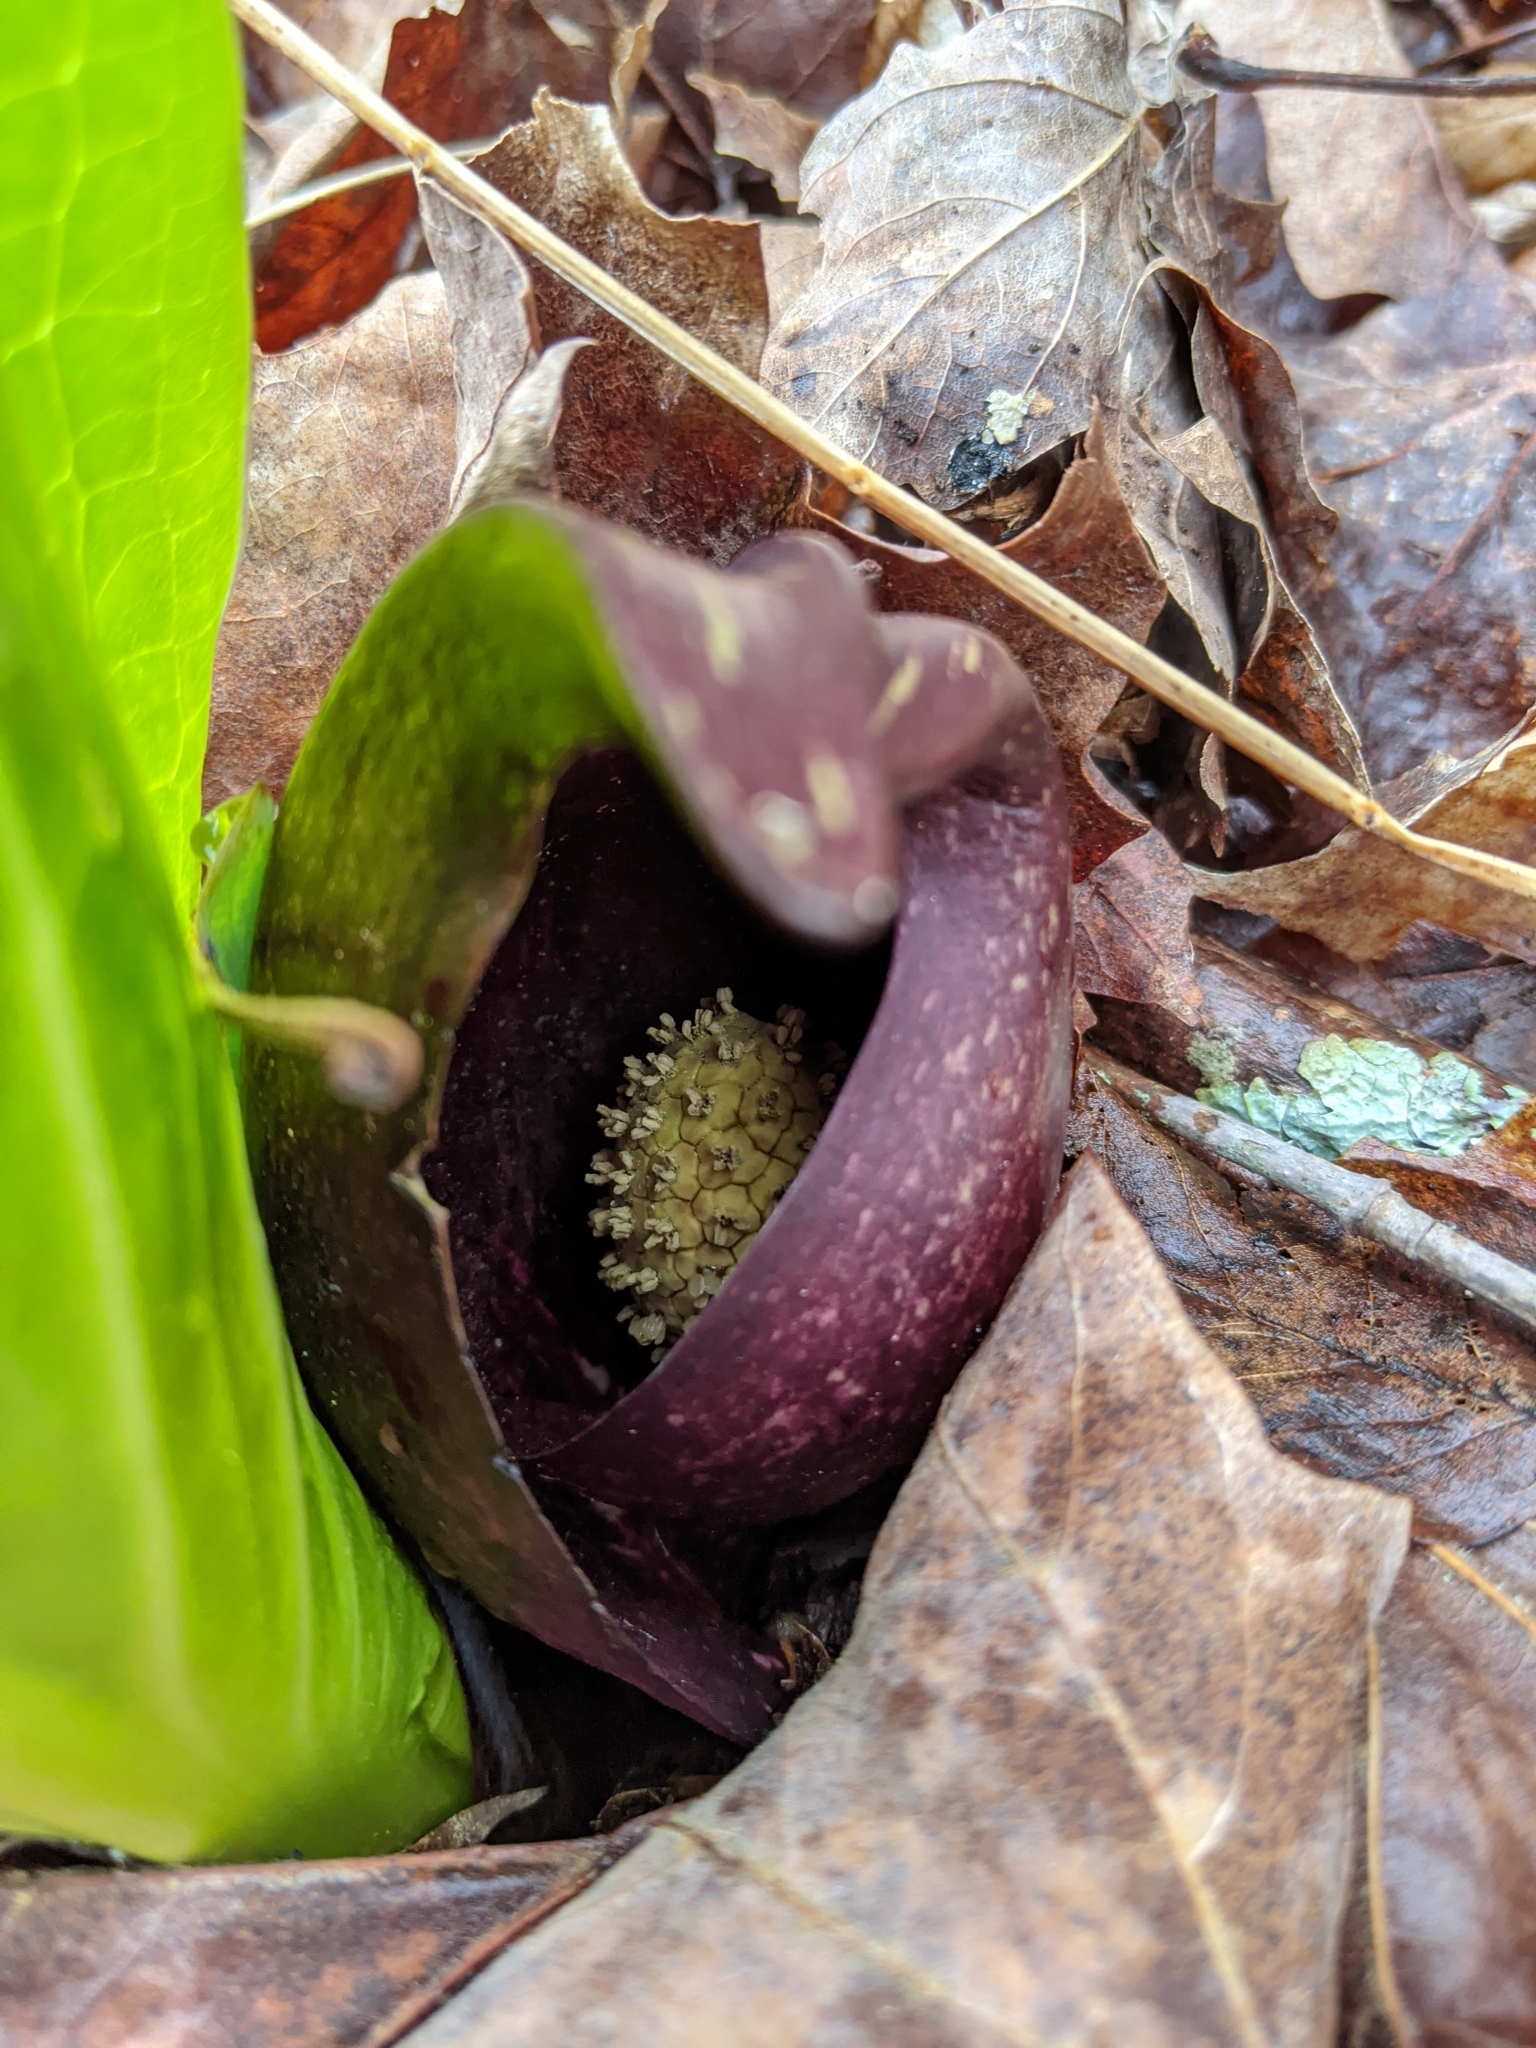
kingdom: Plantae
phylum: Tracheophyta
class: Liliopsida
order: Alismatales
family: Araceae
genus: Symplocarpus
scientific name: Symplocarpus foetidus
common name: Eastern skunk cabbage
